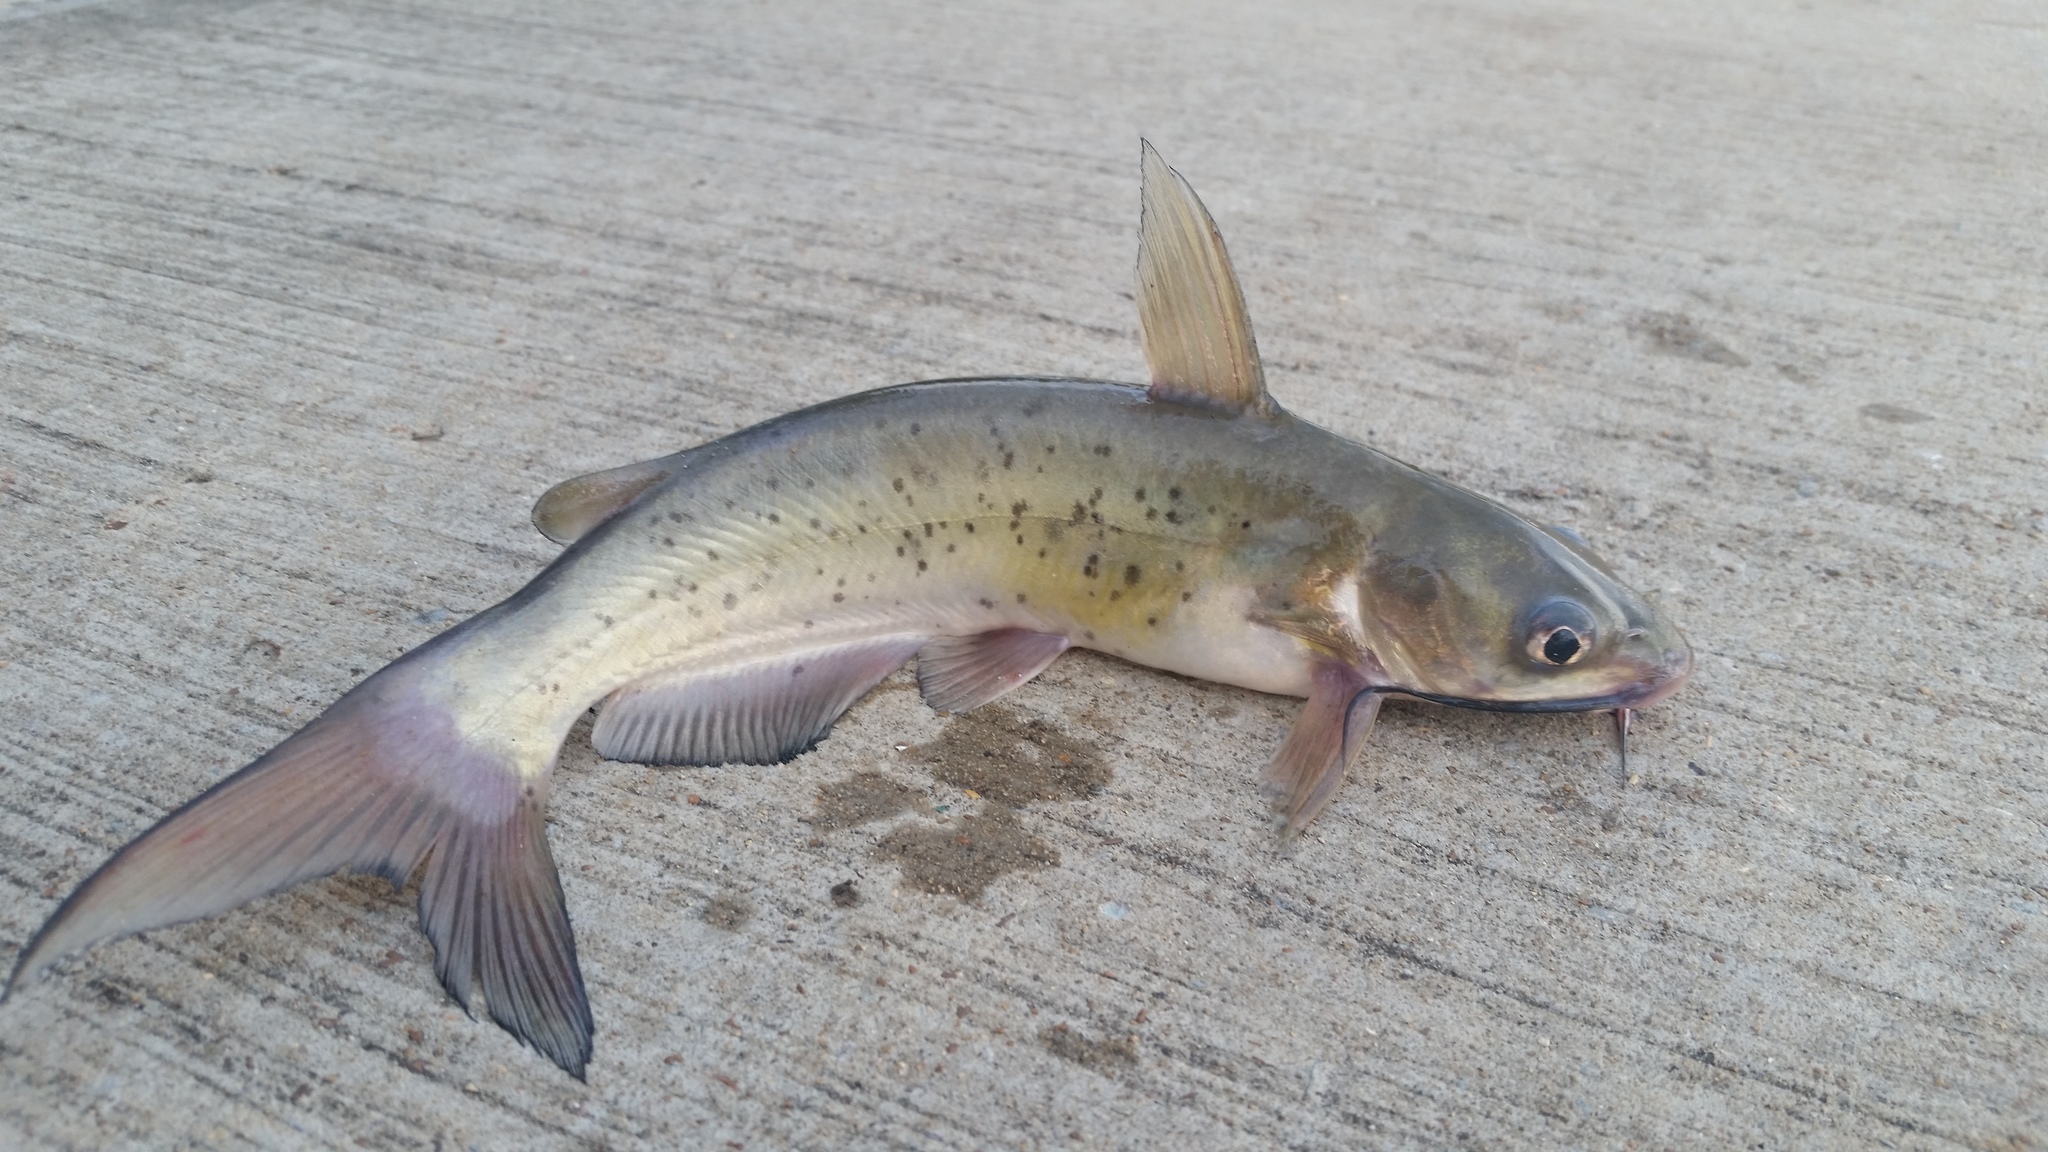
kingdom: Animalia
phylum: Chordata
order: Siluriformes
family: Ictaluridae
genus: Ictalurus
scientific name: Ictalurus punctatus
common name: Channel catfish
